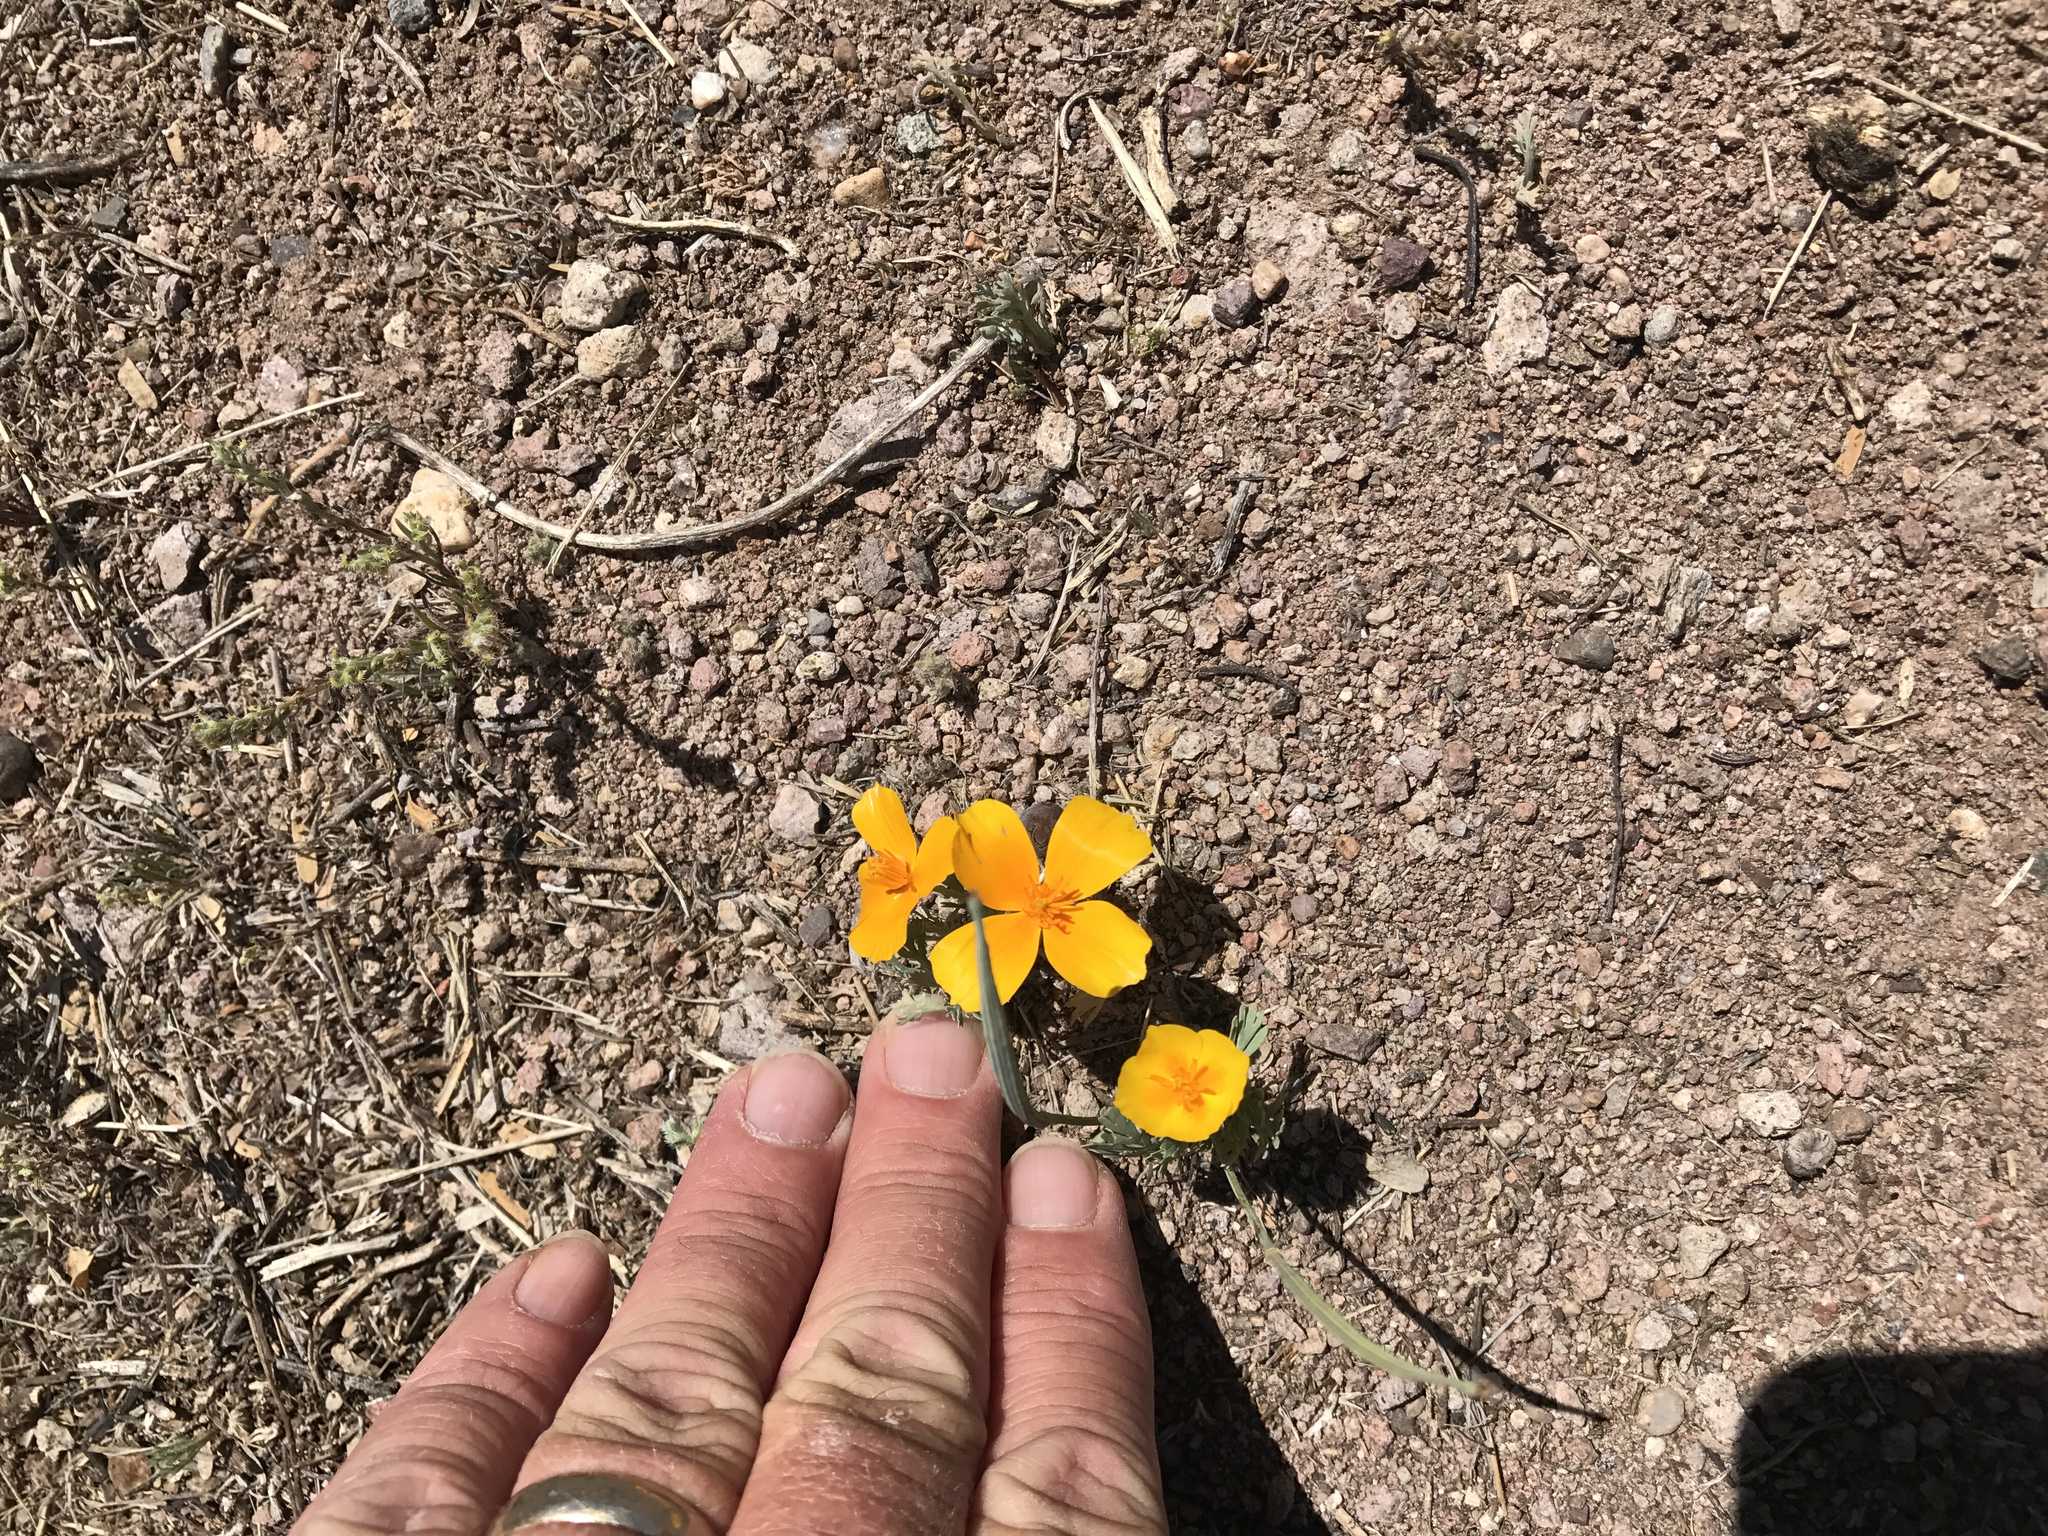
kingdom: Plantae
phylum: Tracheophyta
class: Magnoliopsida
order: Ranunculales
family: Papaveraceae
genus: Eschscholzia
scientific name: Eschscholzia californica
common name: California poppy
